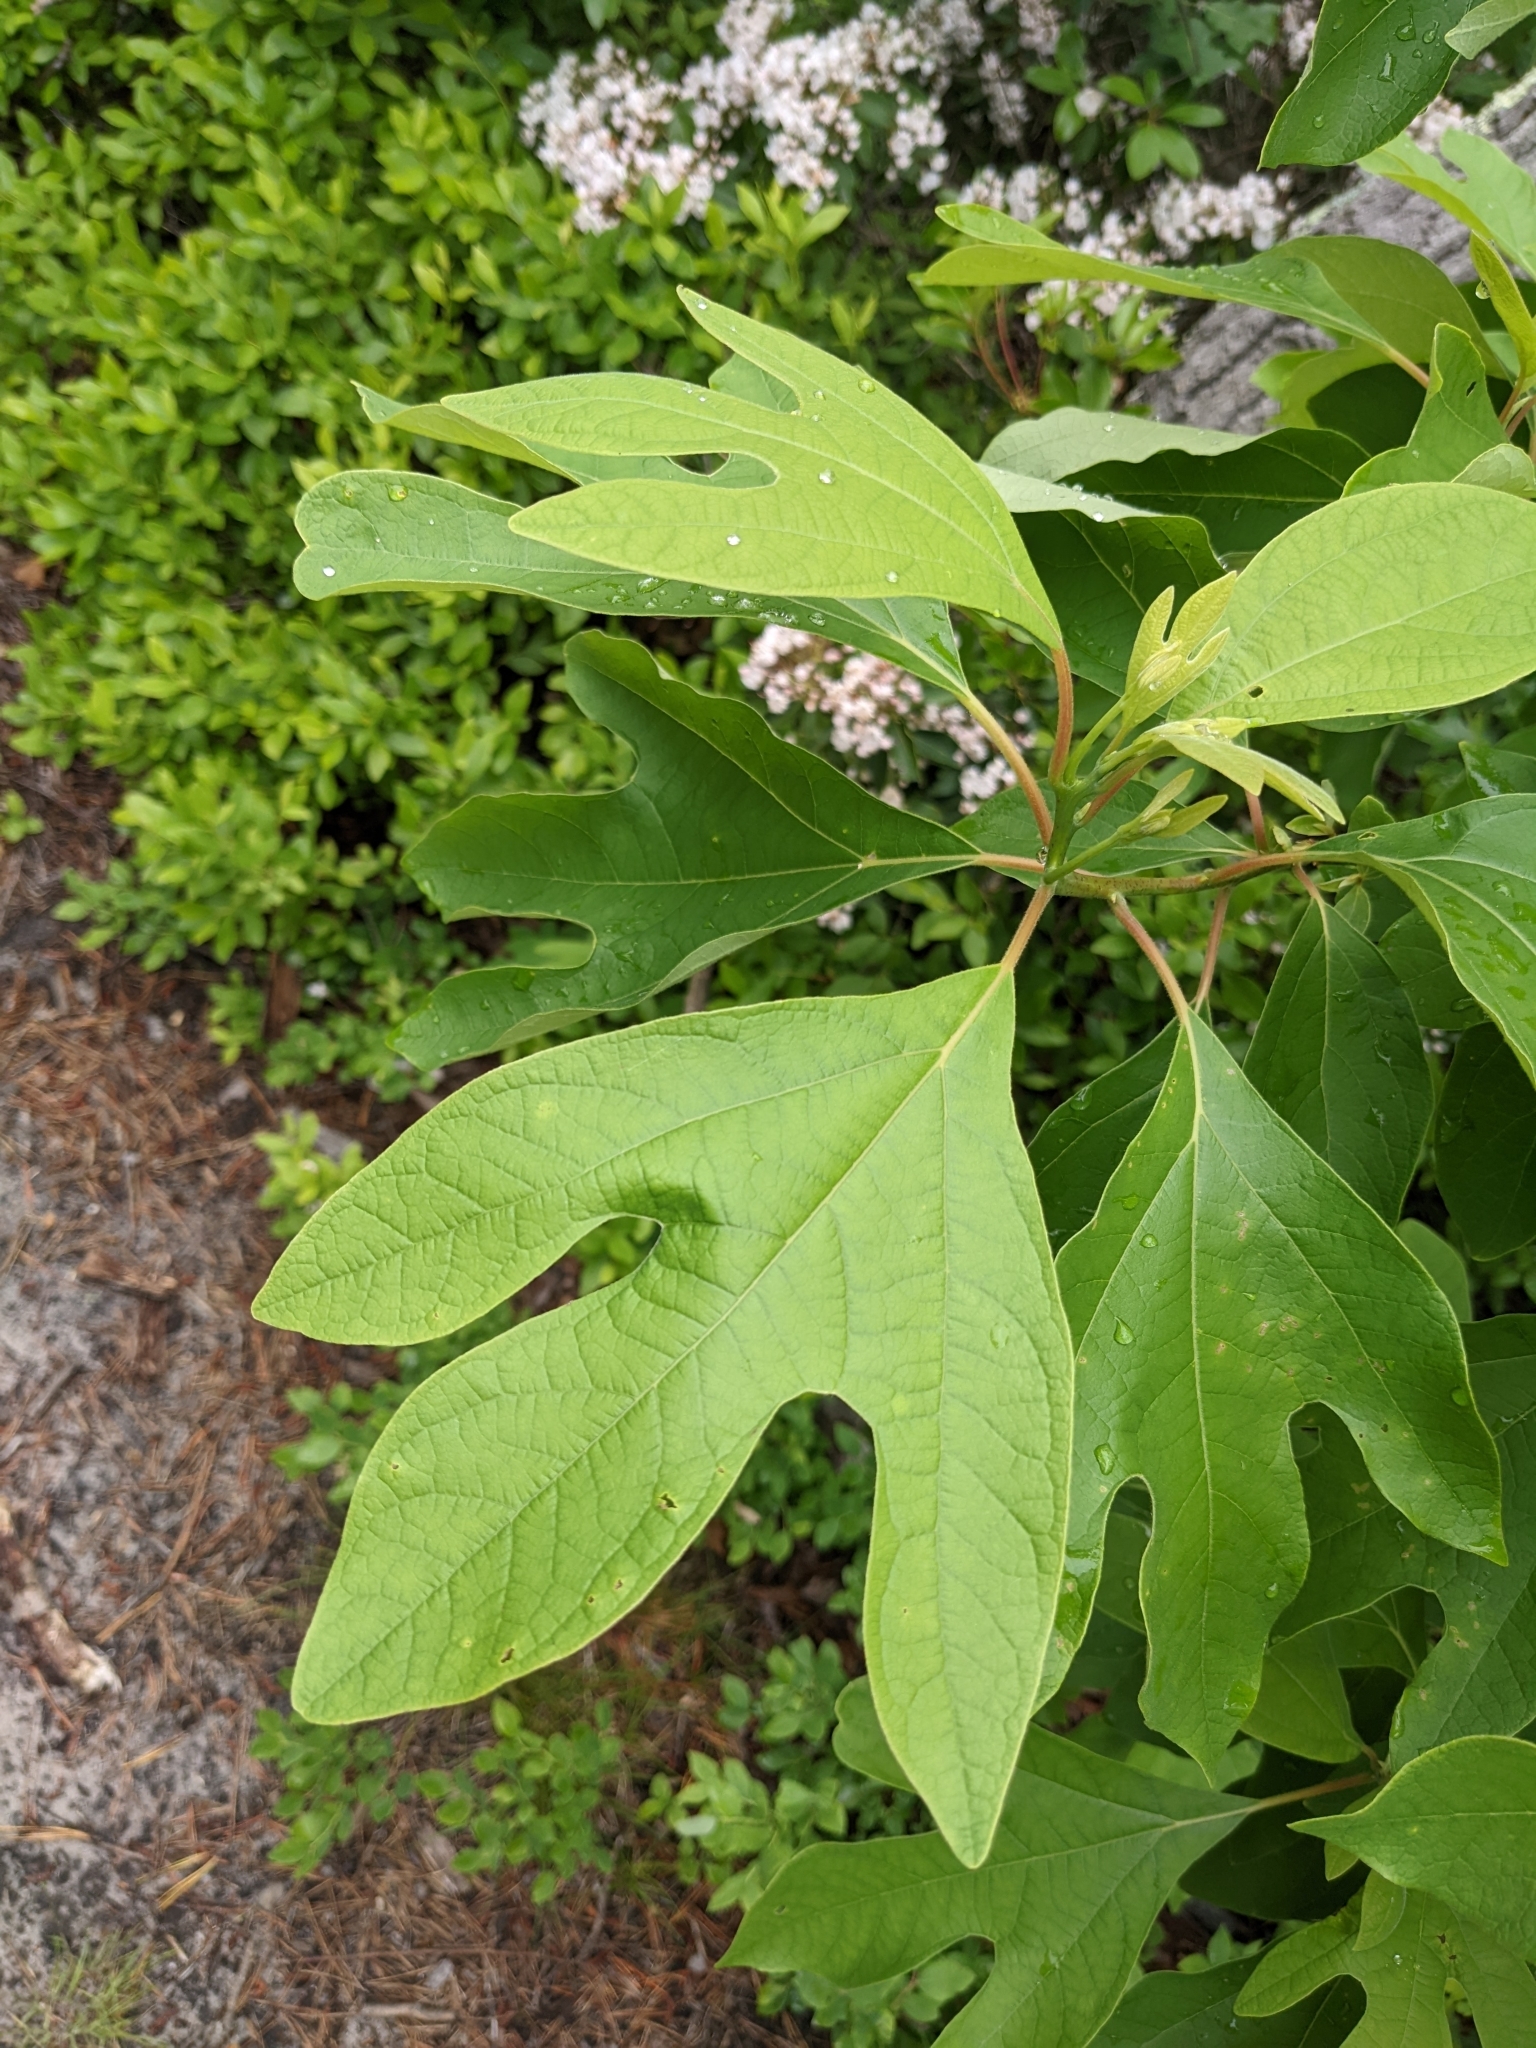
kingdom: Plantae
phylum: Tracheophyta
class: Magnoliopsida
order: Laurales
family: Lauraceae
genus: Sassafras
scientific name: Sassafras albidum
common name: Sassafras
